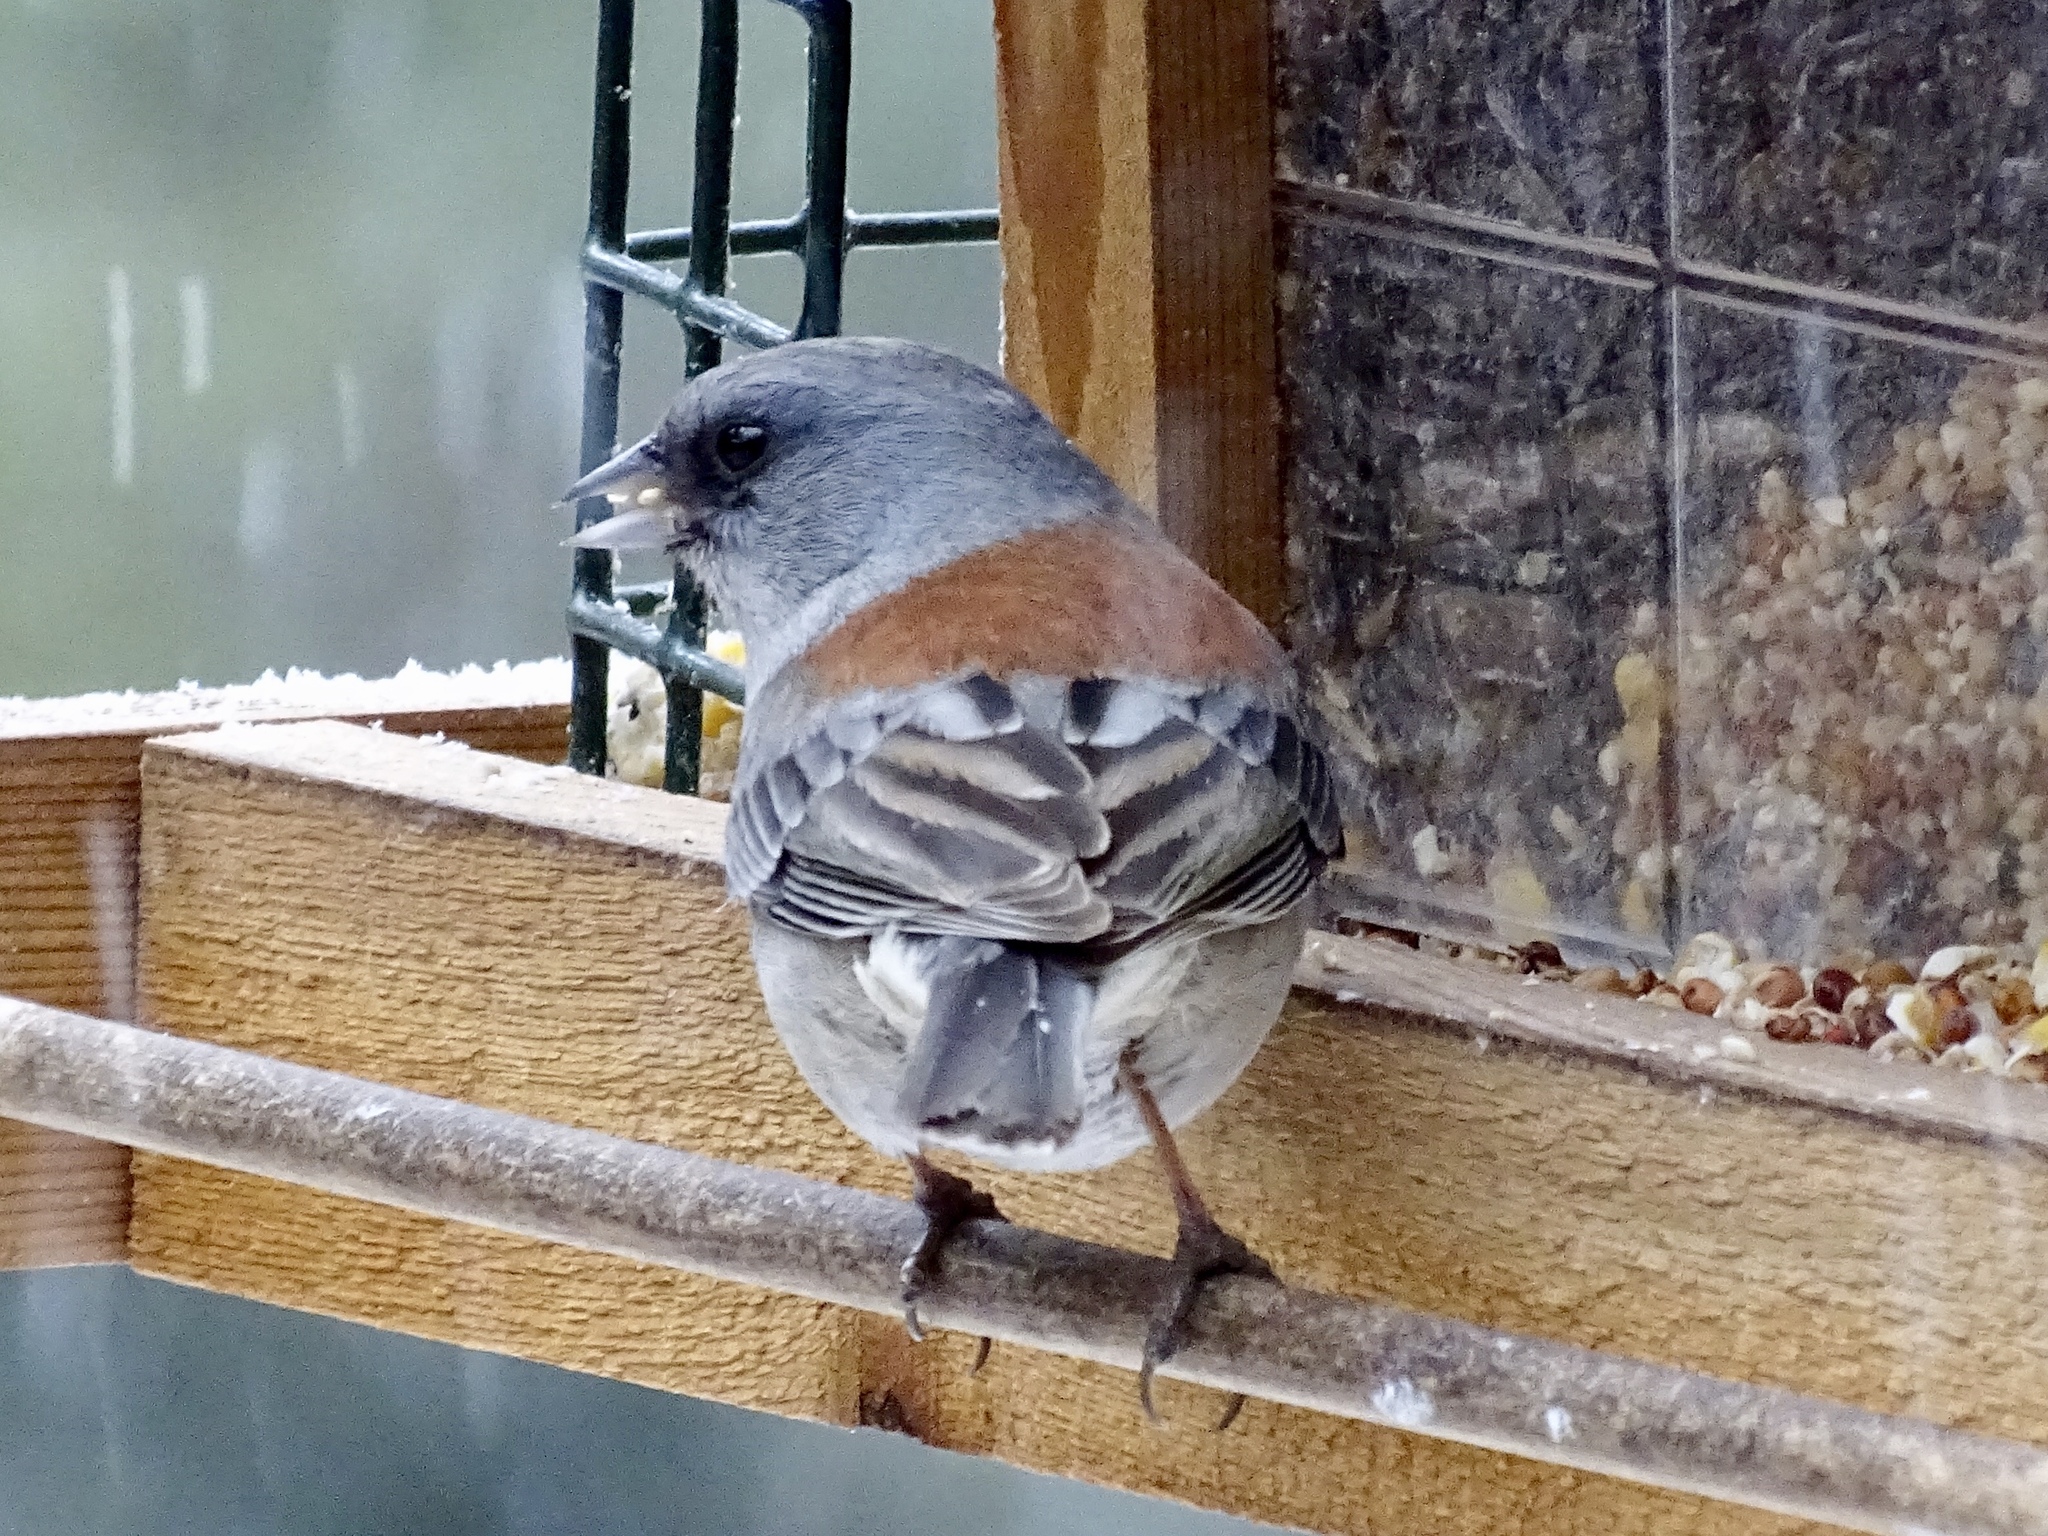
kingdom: Animalia
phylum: Chordata
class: Aves
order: Passeriformes
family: Passerellidae
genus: Junco
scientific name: Junco hyemalis
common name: Dark-eyed junco
